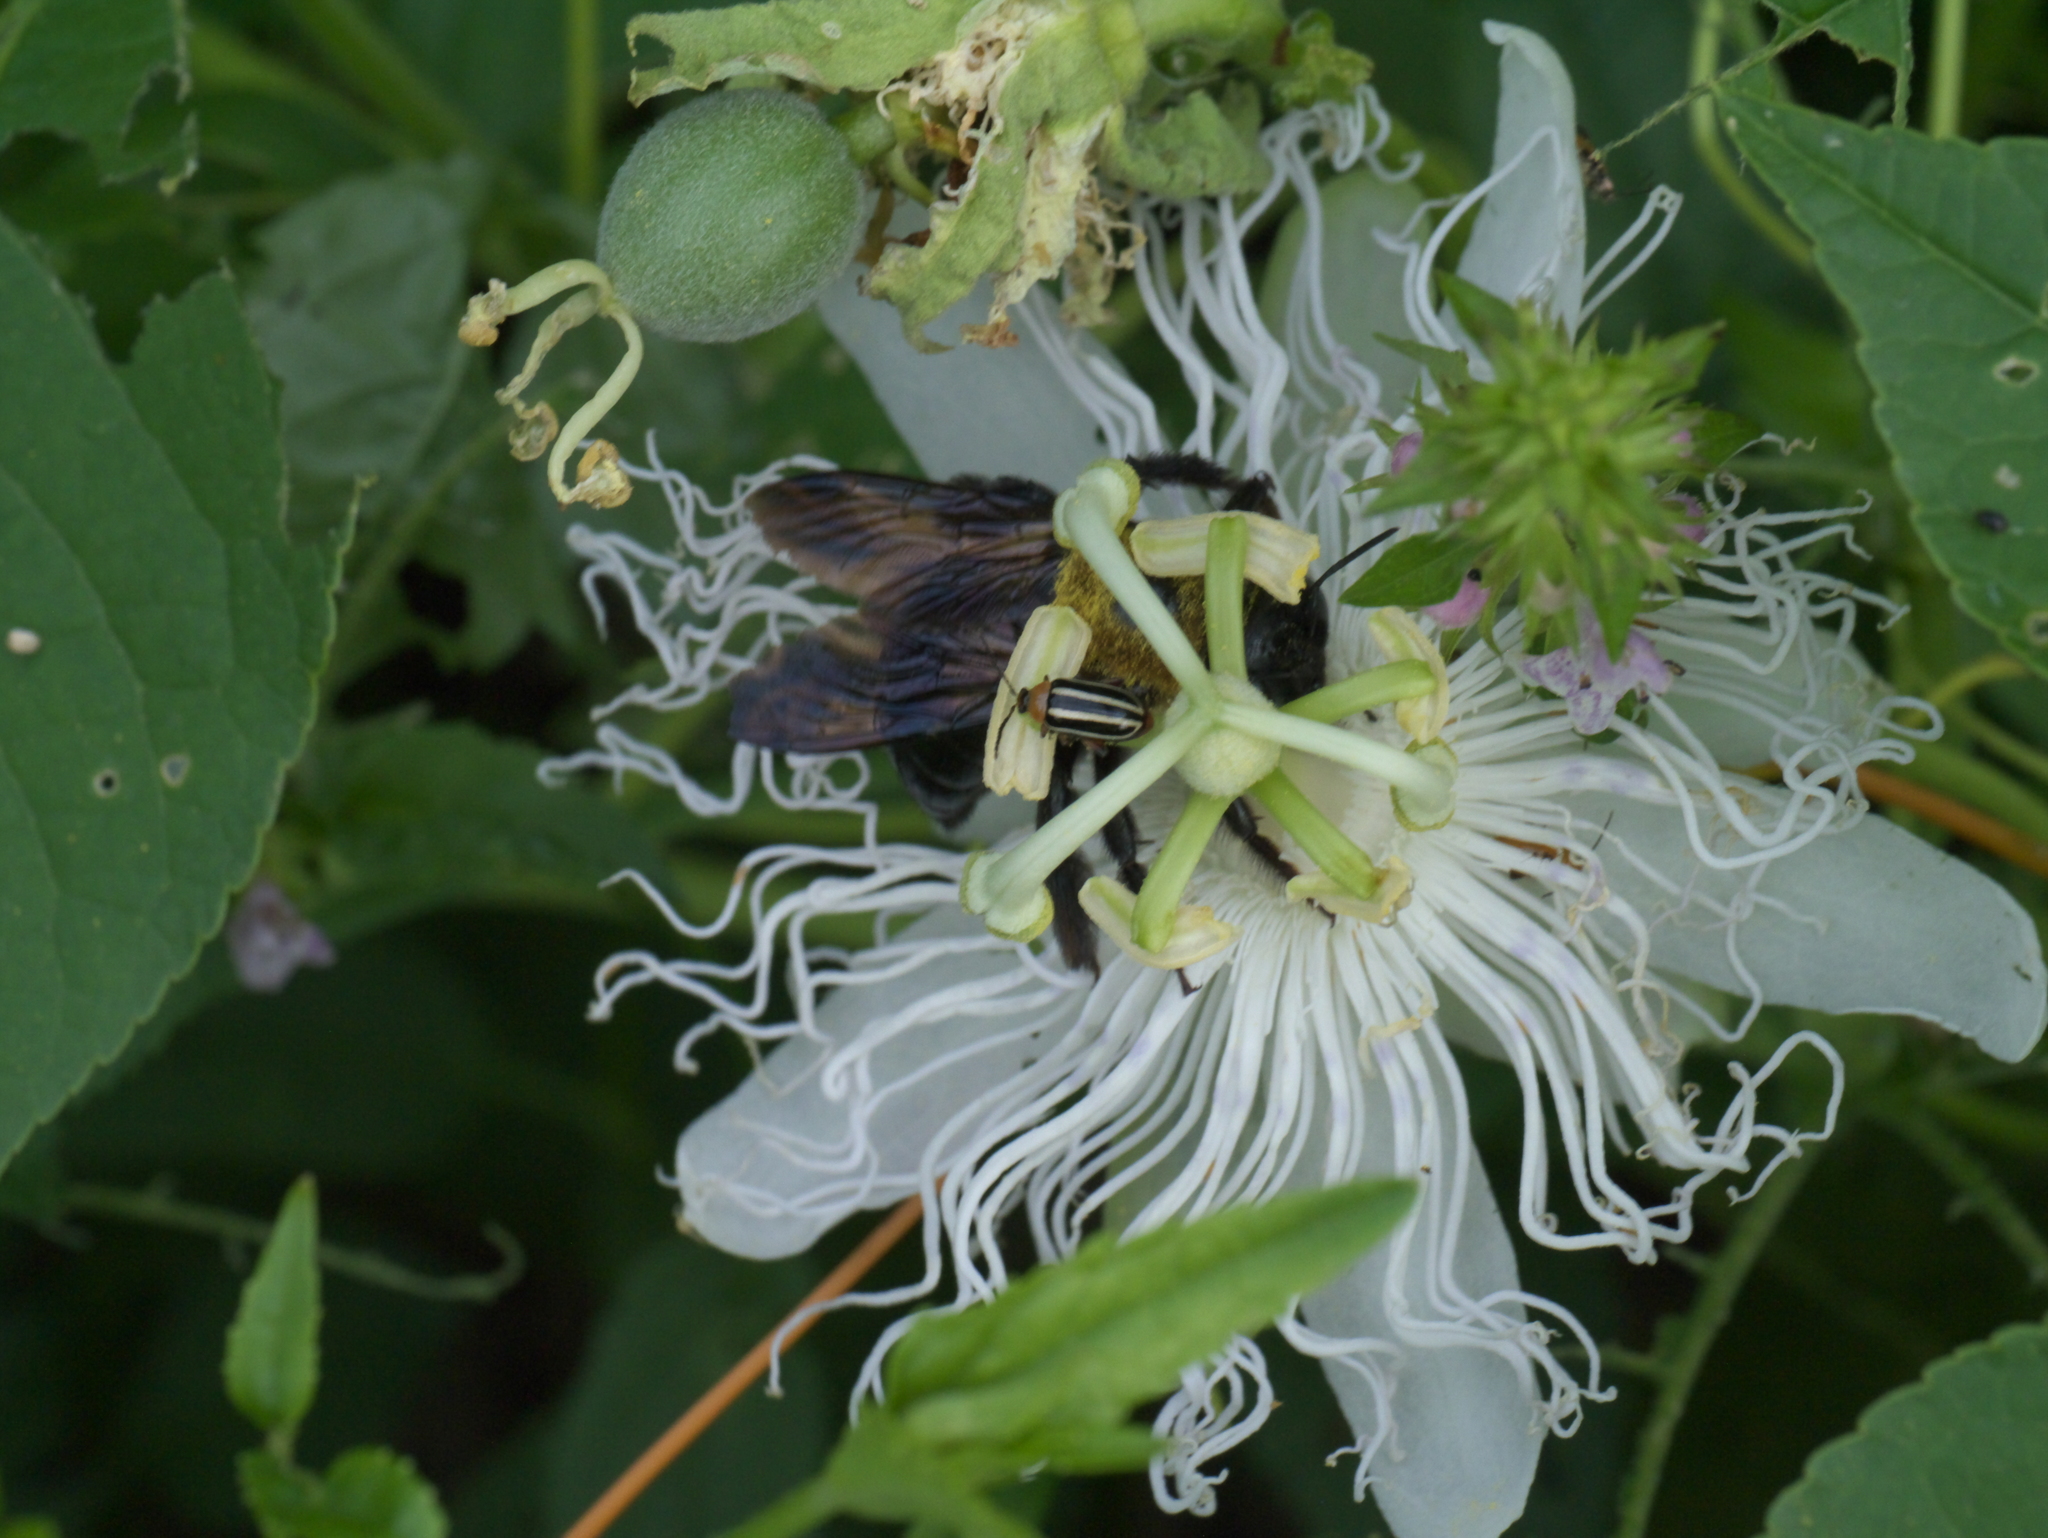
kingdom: Animalia
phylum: Arthropoda
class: Insecta
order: Coleoptera
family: Chrysomelidae
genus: Disonycha
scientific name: Disonycha glabrata
